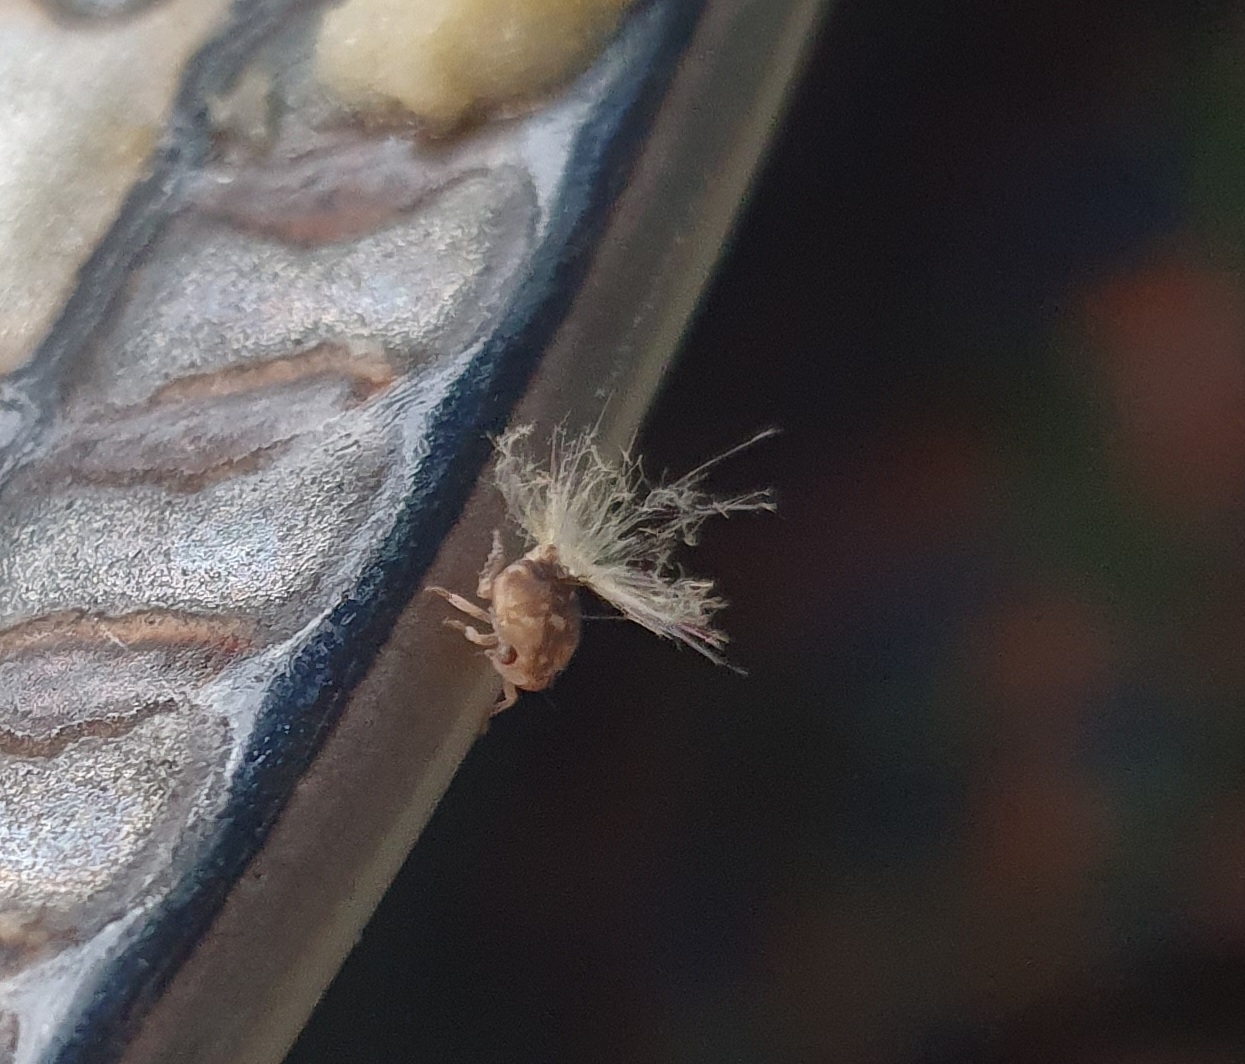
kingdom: Animalia
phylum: Arthropoda
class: Insecta
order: Hemiptera
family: Ricaniidae
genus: Scolypopa
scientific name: Scolypopa australis
